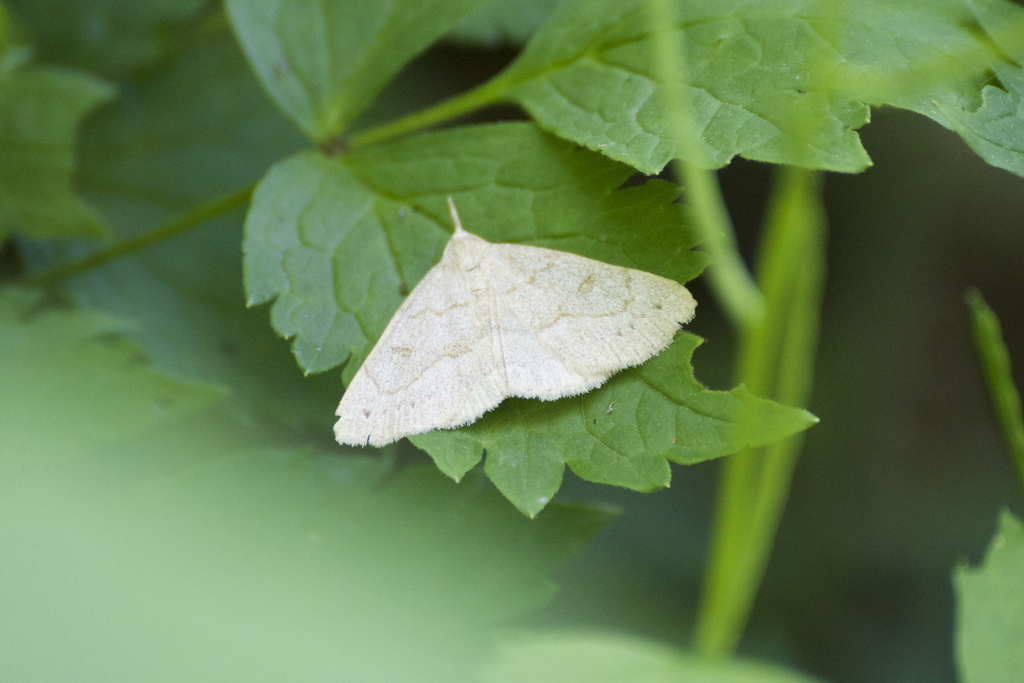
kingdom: Animalia
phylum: Arthropoda
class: Insecta
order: Lepidoptera
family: Erebidae
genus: Macrochilo
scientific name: Macrochilo morbidalis
